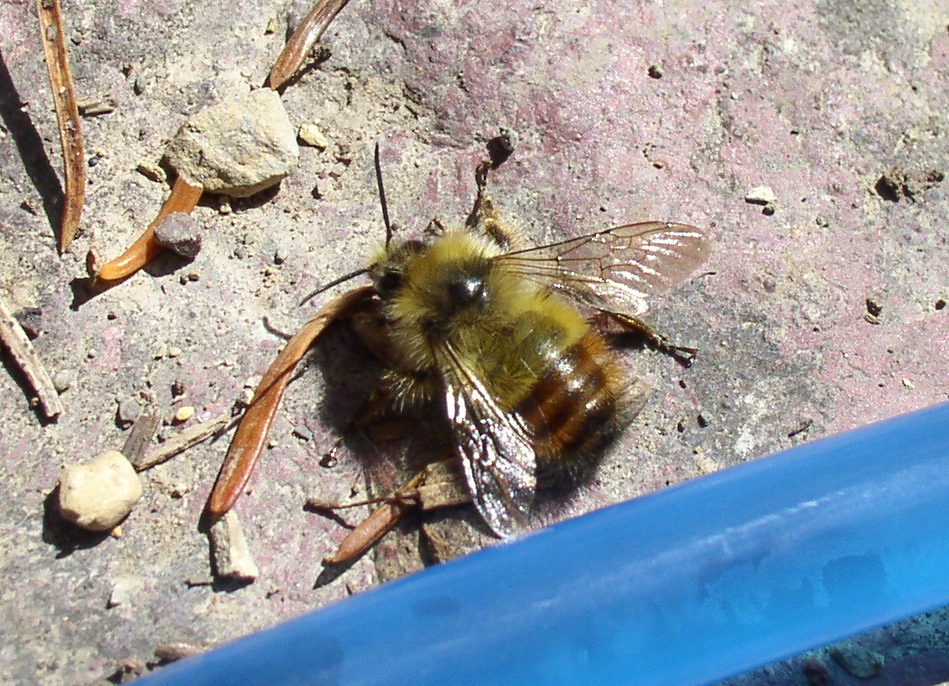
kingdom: Animalia
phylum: Arthropoda
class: Insecta
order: Hymenoptera
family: Apidae
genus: Pyrobombus
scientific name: Pyrobombus
